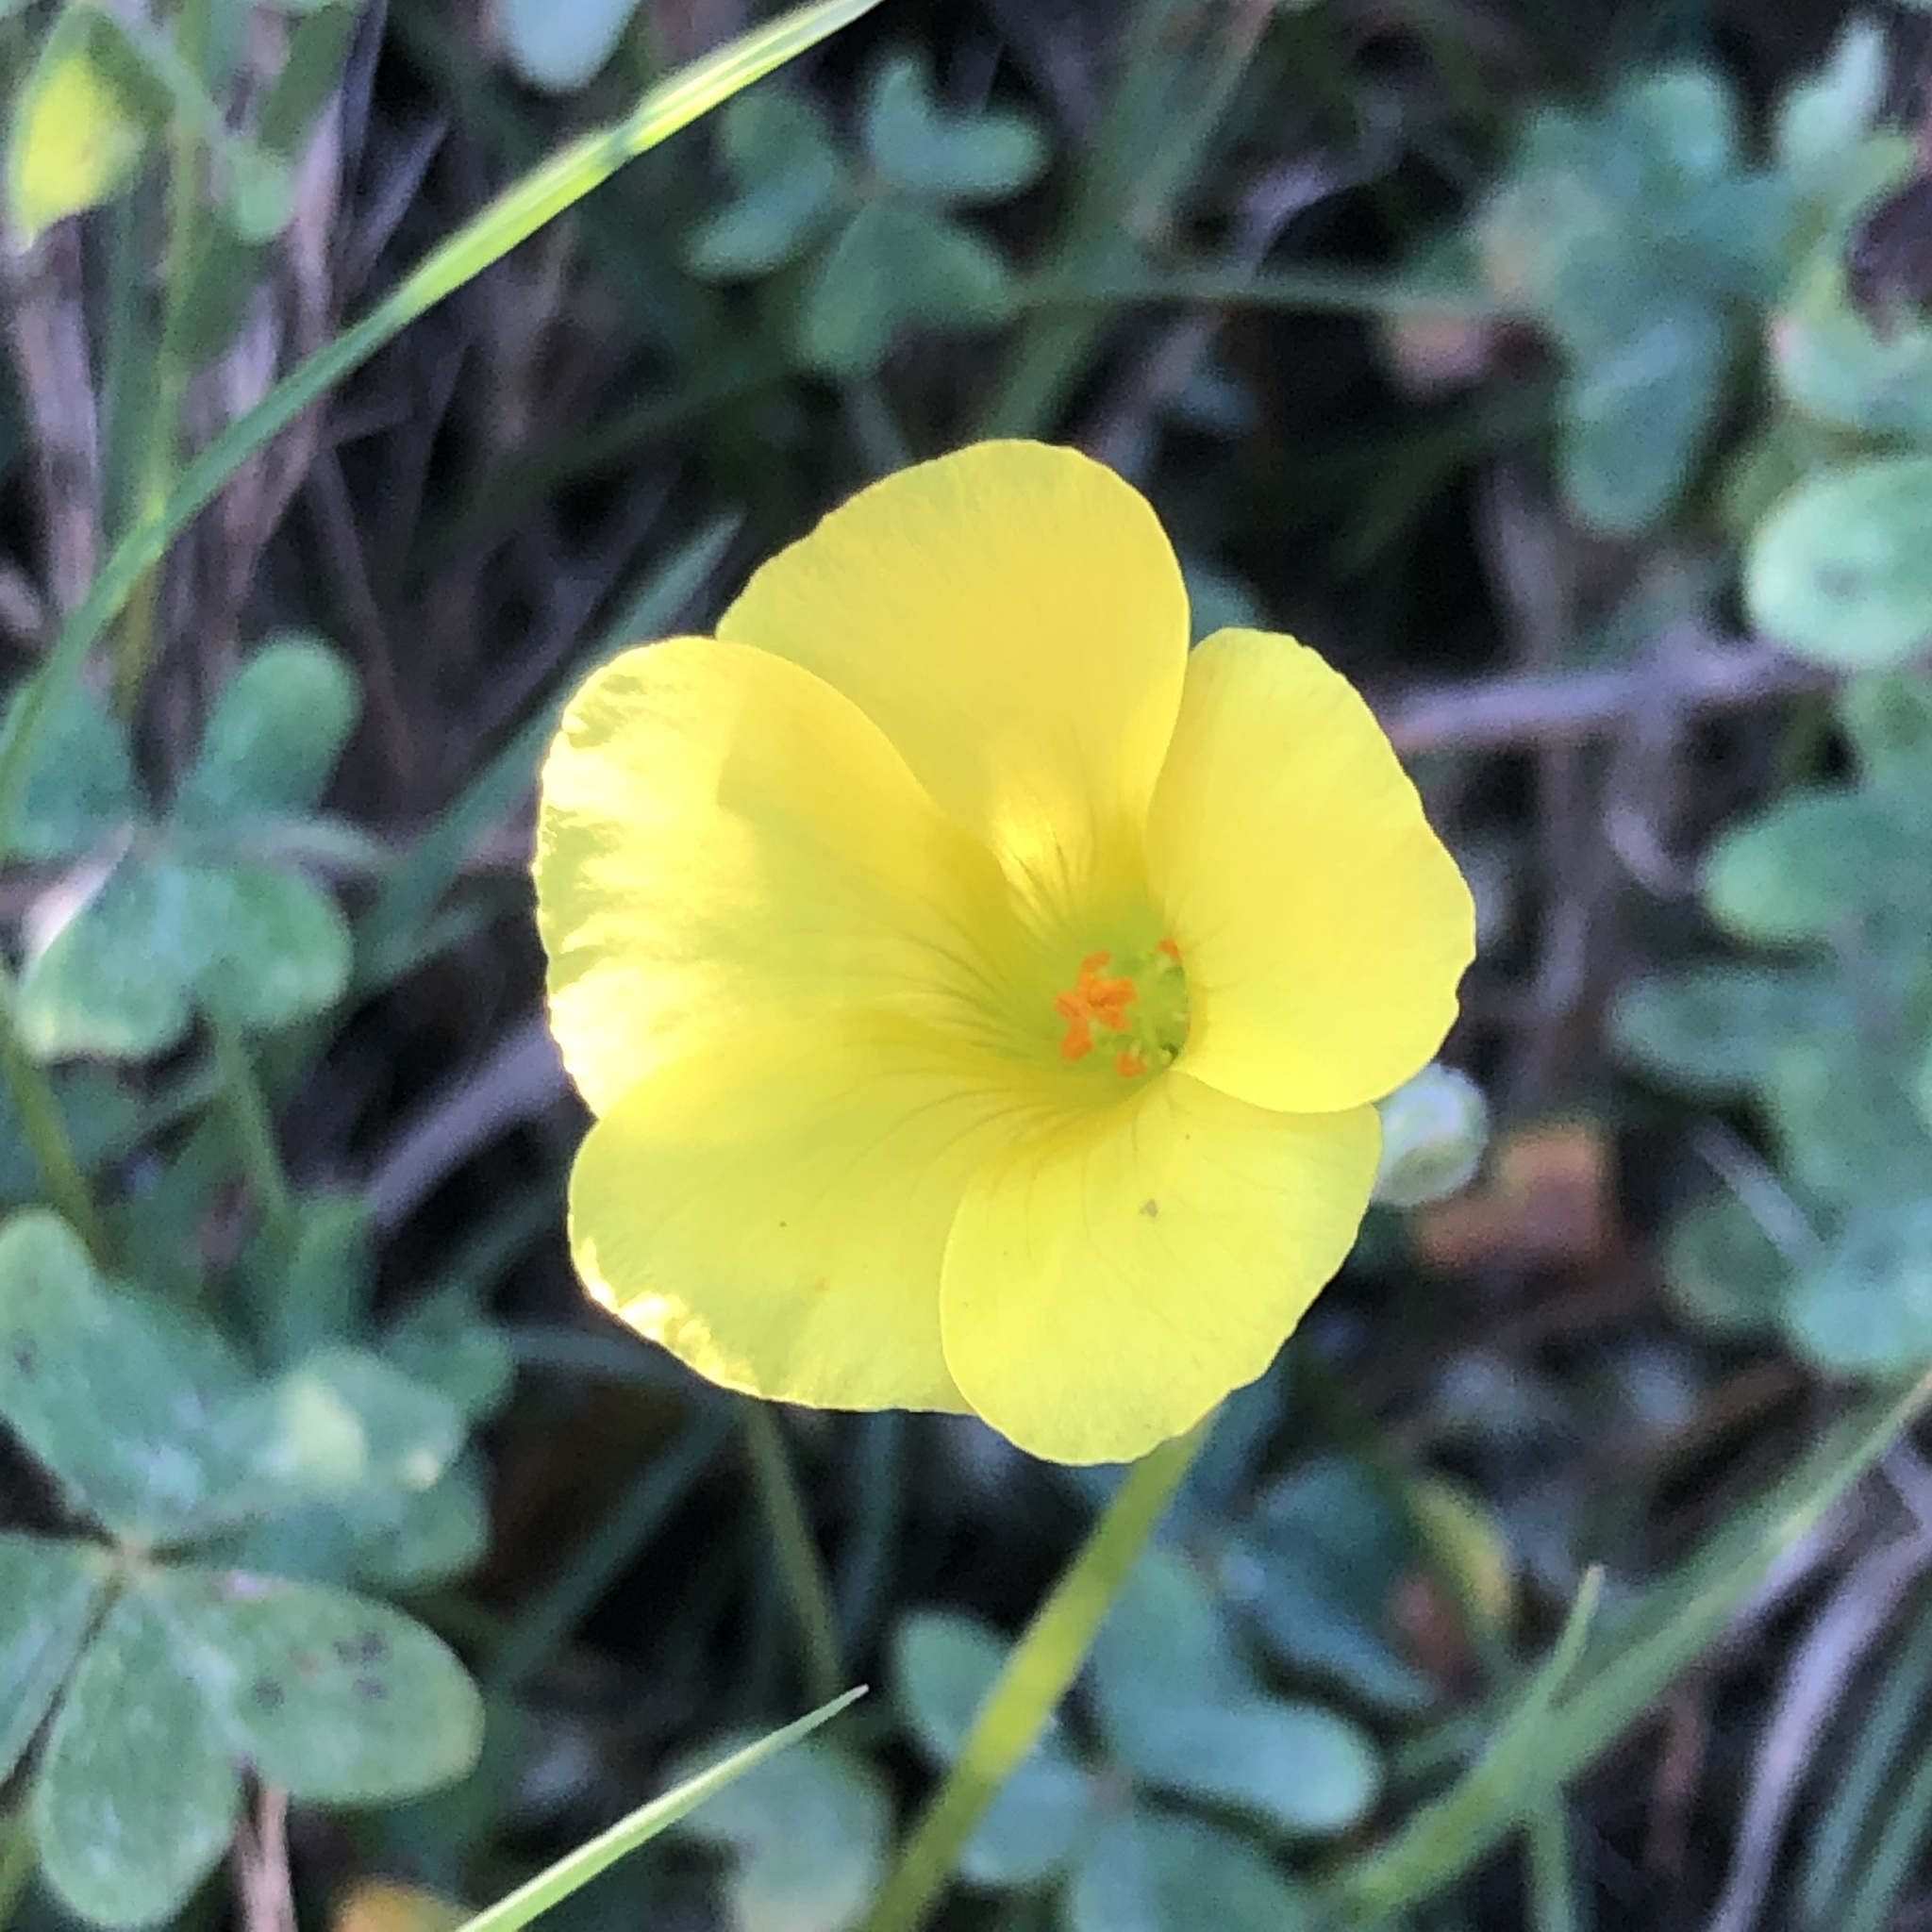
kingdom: Plantae
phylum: Tracheophyta
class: Magnoliopsida
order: Oxalidales
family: Oxalidaceae
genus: Oxalis
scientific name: Oxalis pes-caprae
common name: Bermuda-buttercup
